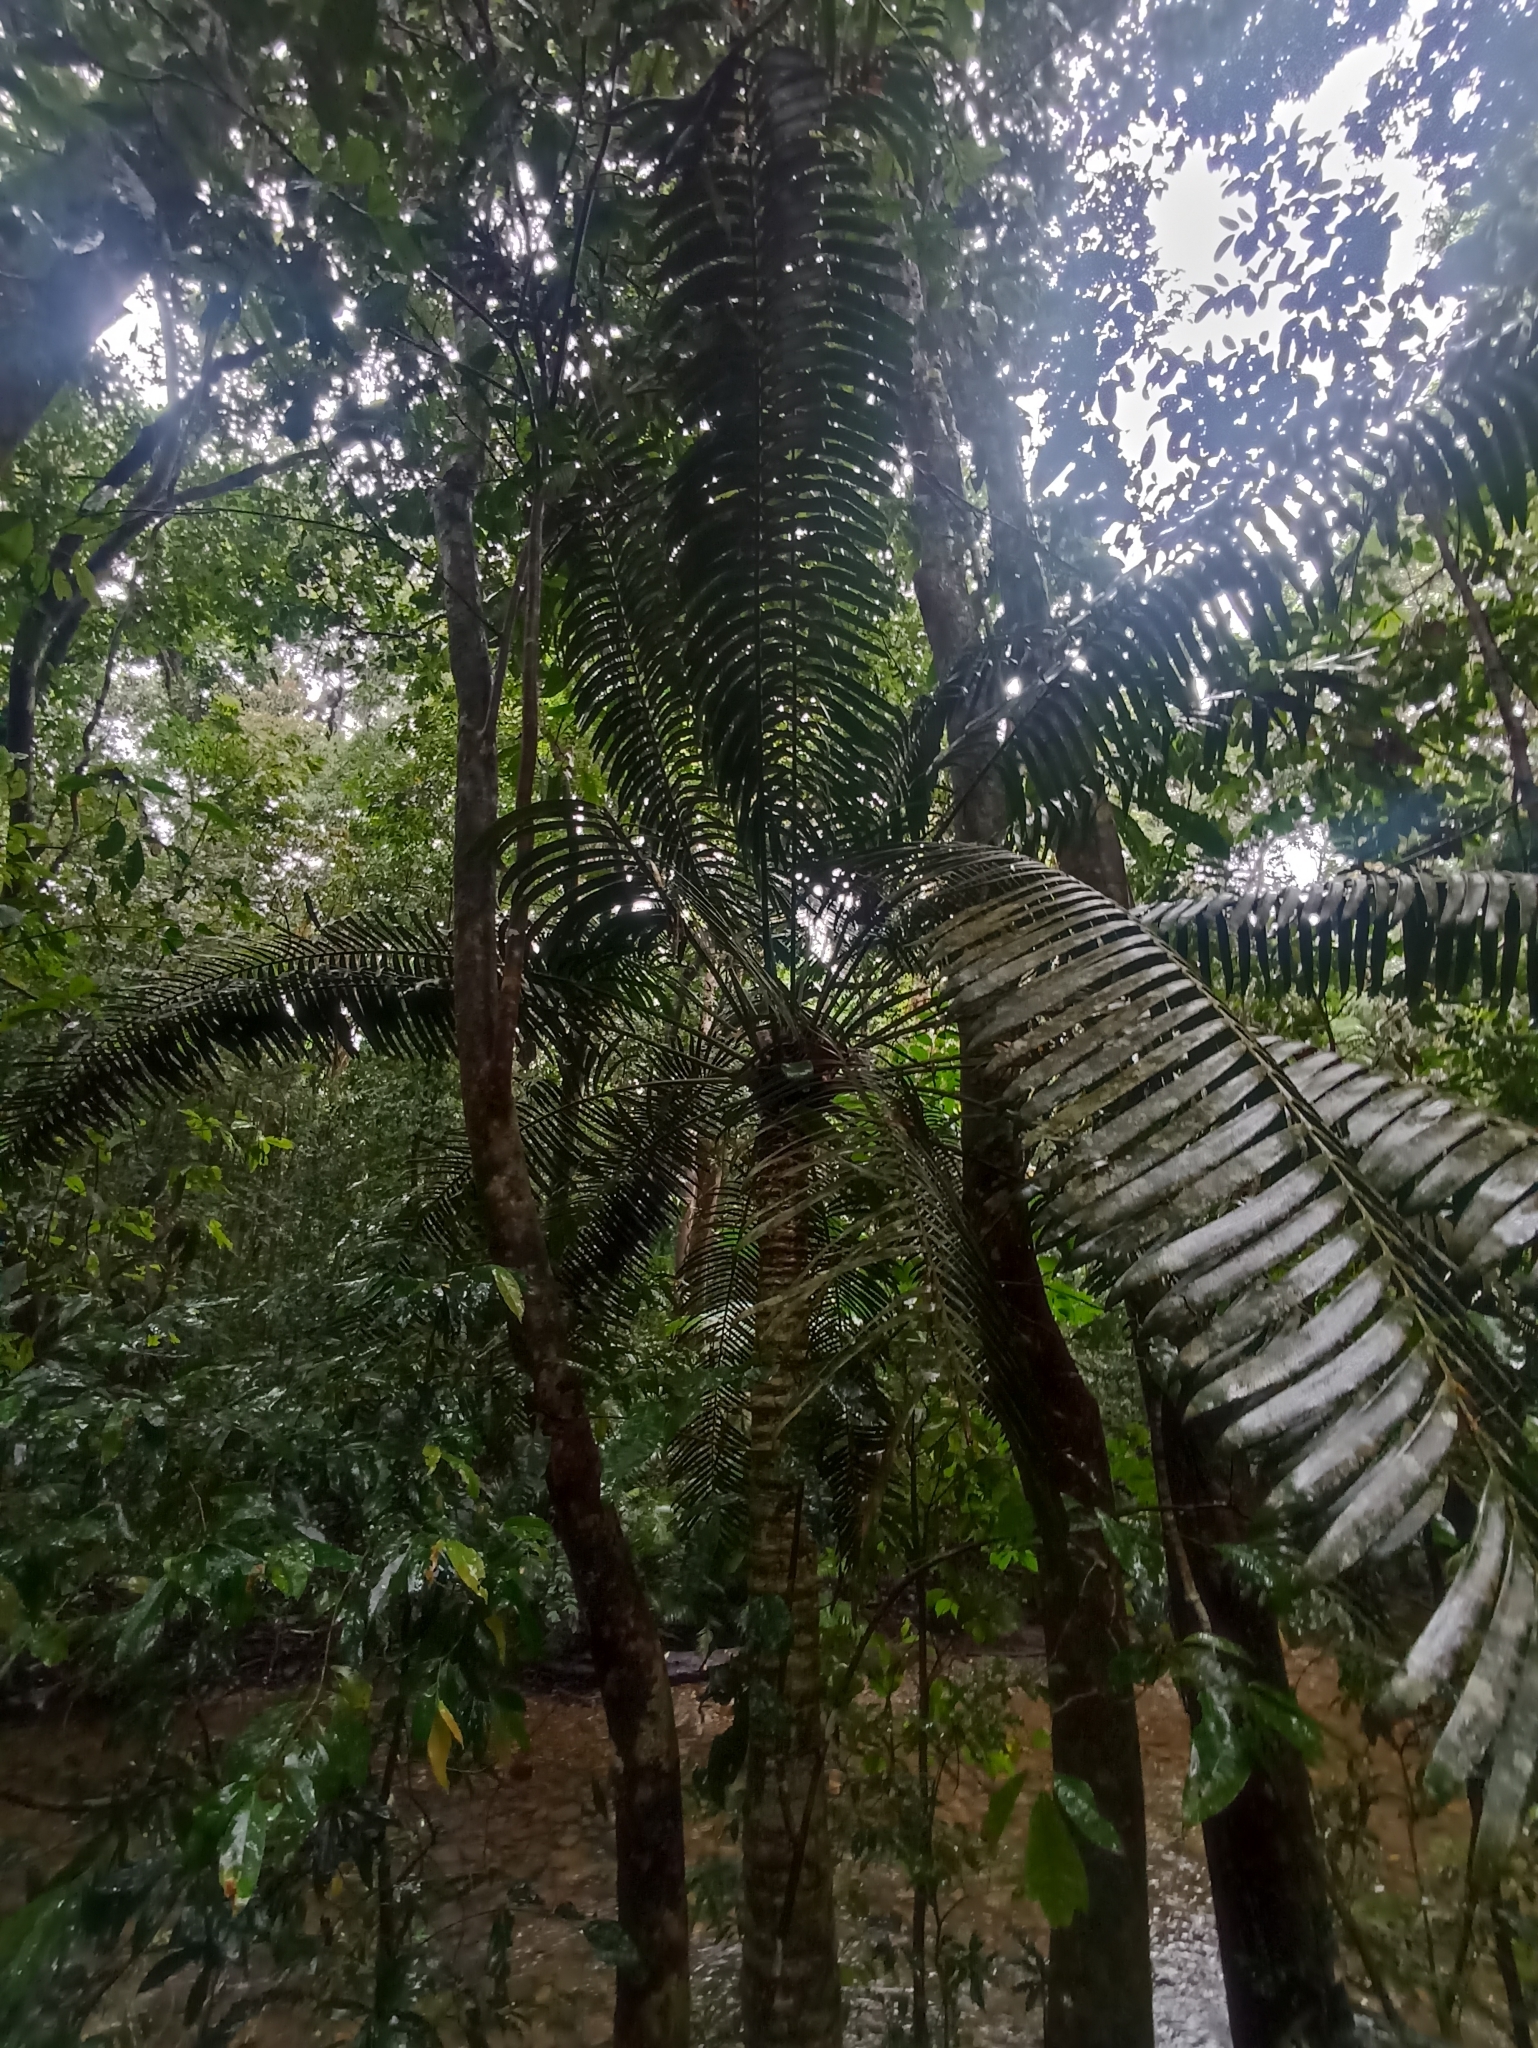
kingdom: Plantae
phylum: Tracheophyta
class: Cycadopsida
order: Cycadales
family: Zamiaceae
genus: Lepidozamia
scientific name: Lepidozamia hopei
